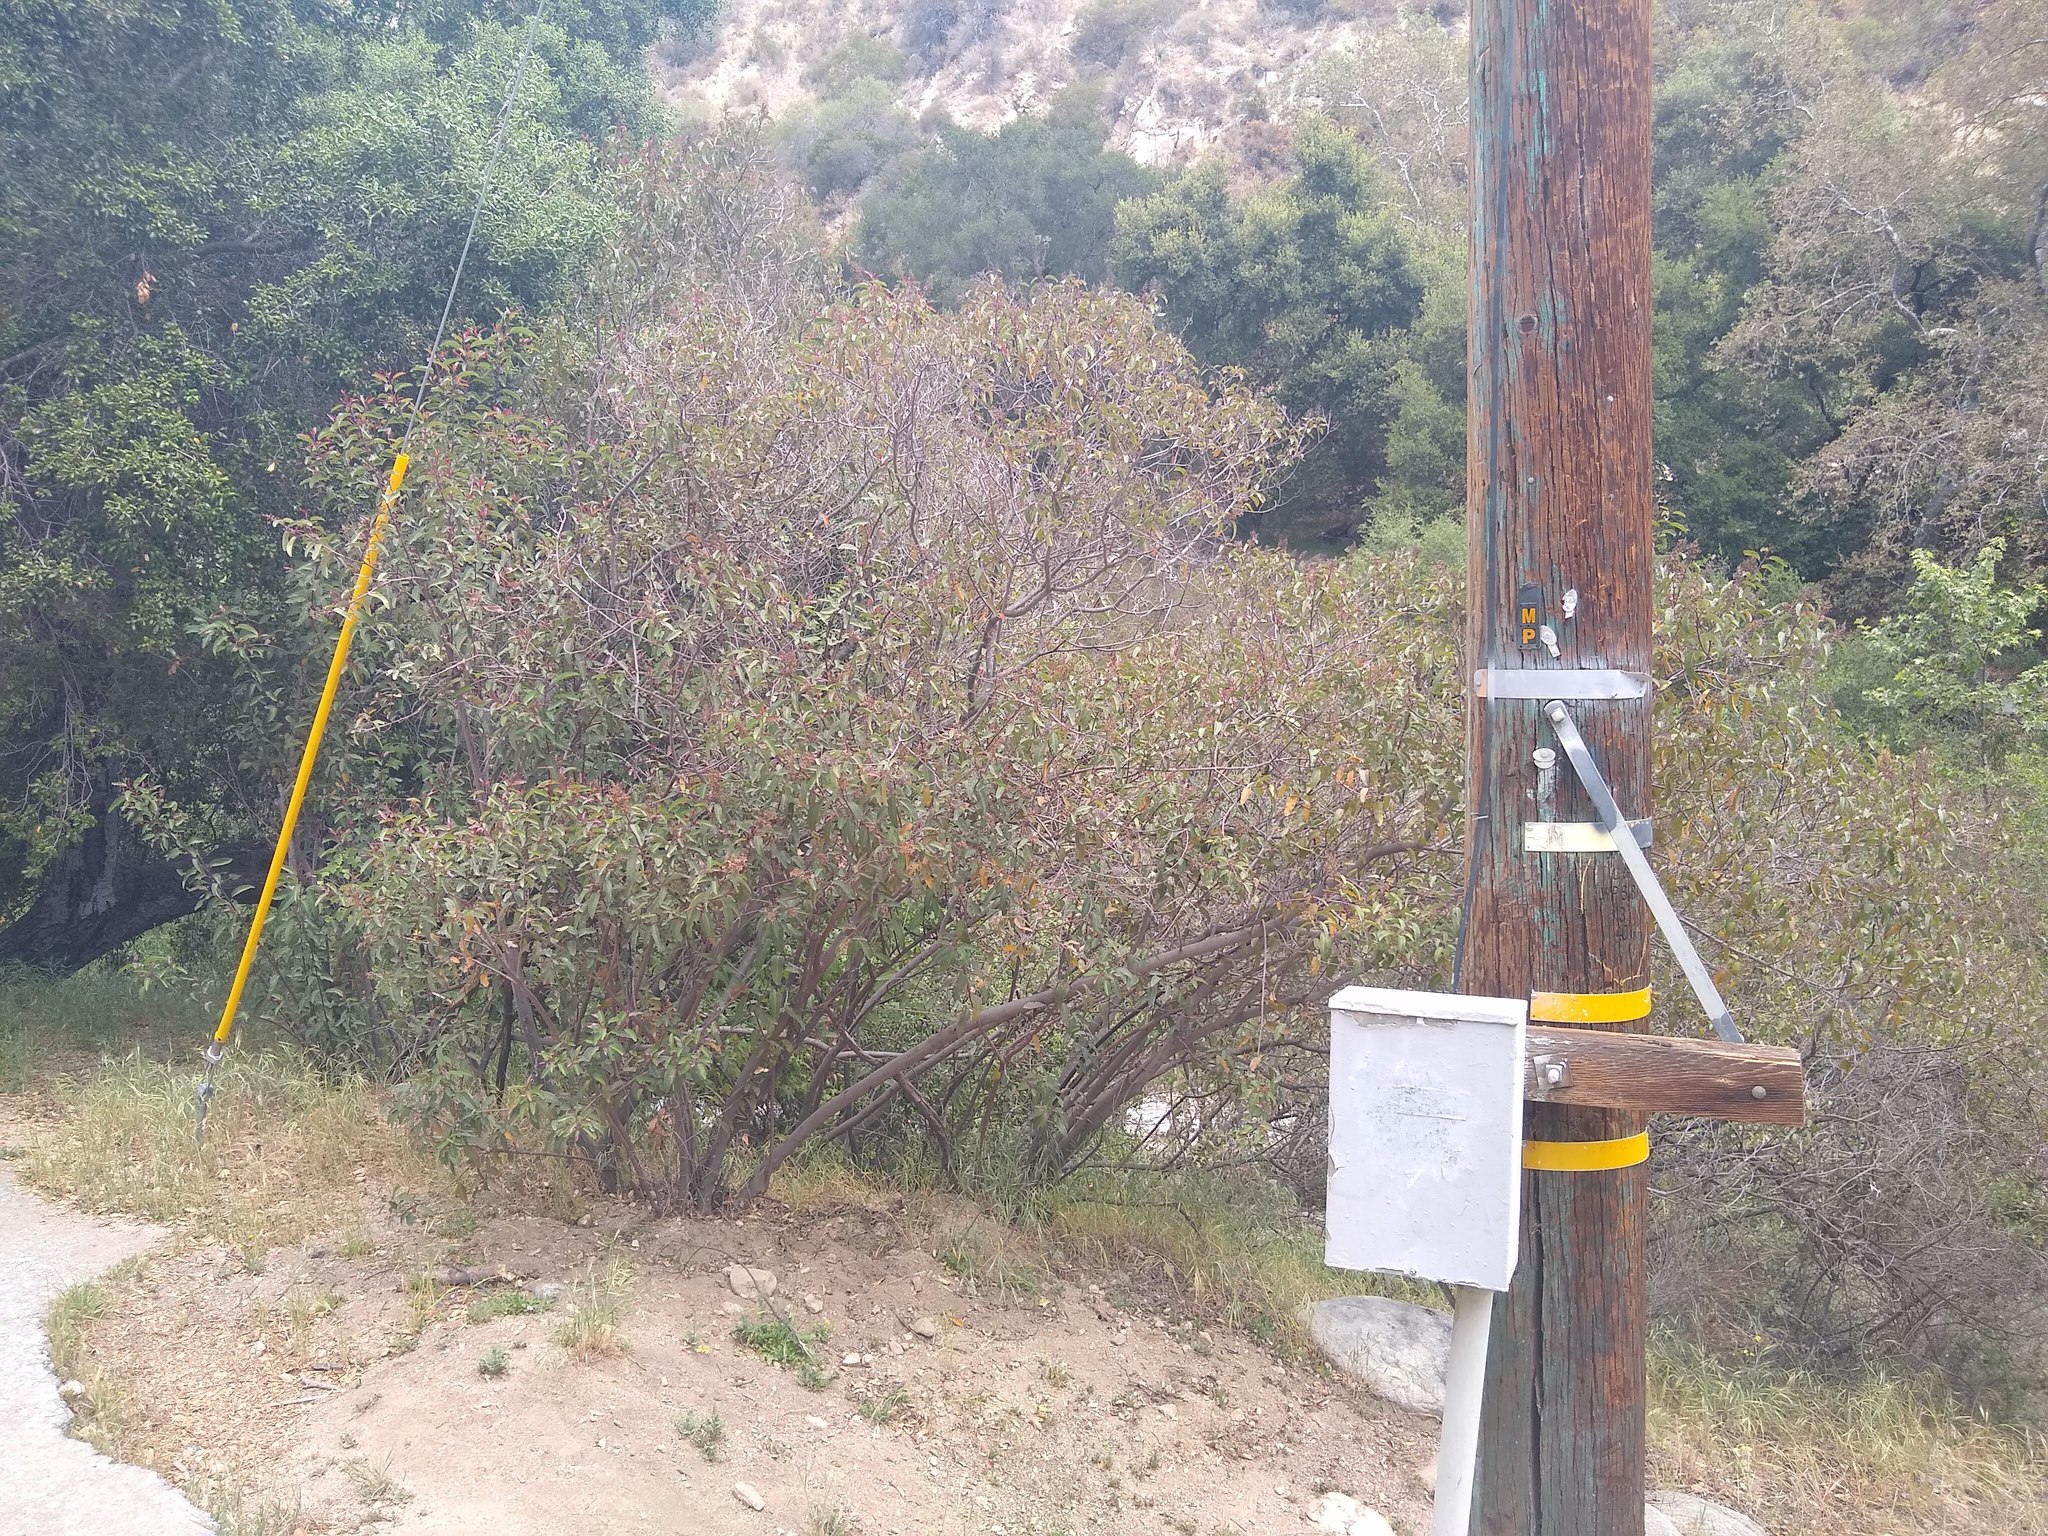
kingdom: Plantae
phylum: Tracheophyta
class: Magnoliopsida
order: Sapindales
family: Anacardiaceae
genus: Malosma
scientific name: Malosma laurina
